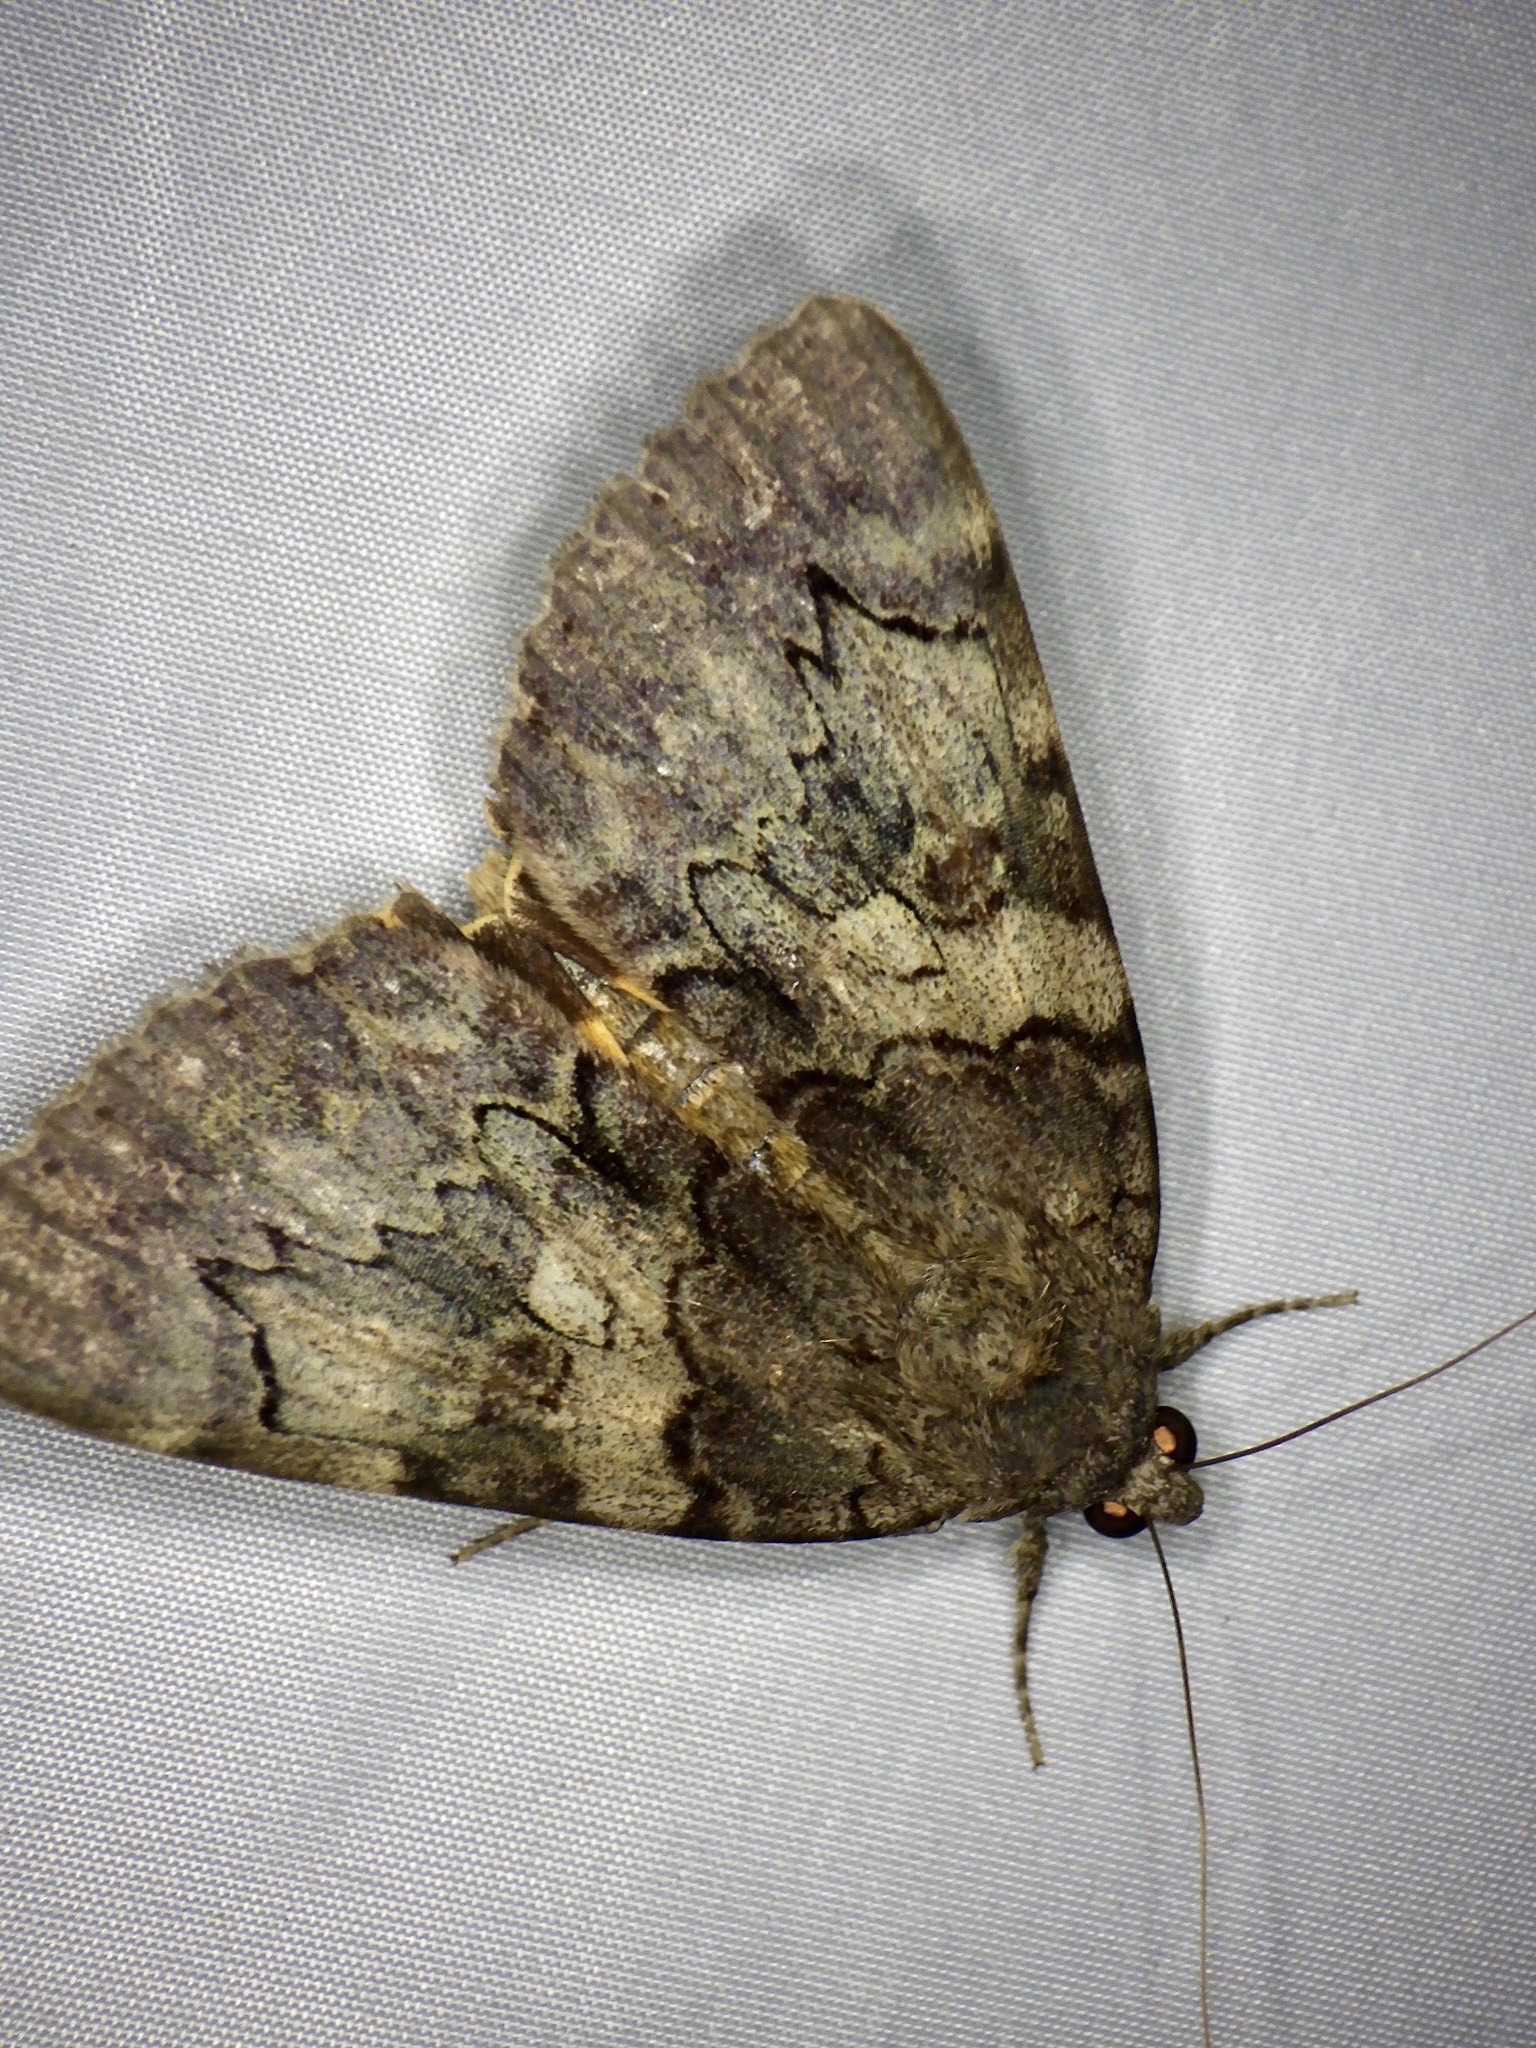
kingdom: Animalia
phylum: Arthropoda
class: Insecta
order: Lepidoptera
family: Erebidae
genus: Catocala
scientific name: Catocala patala
